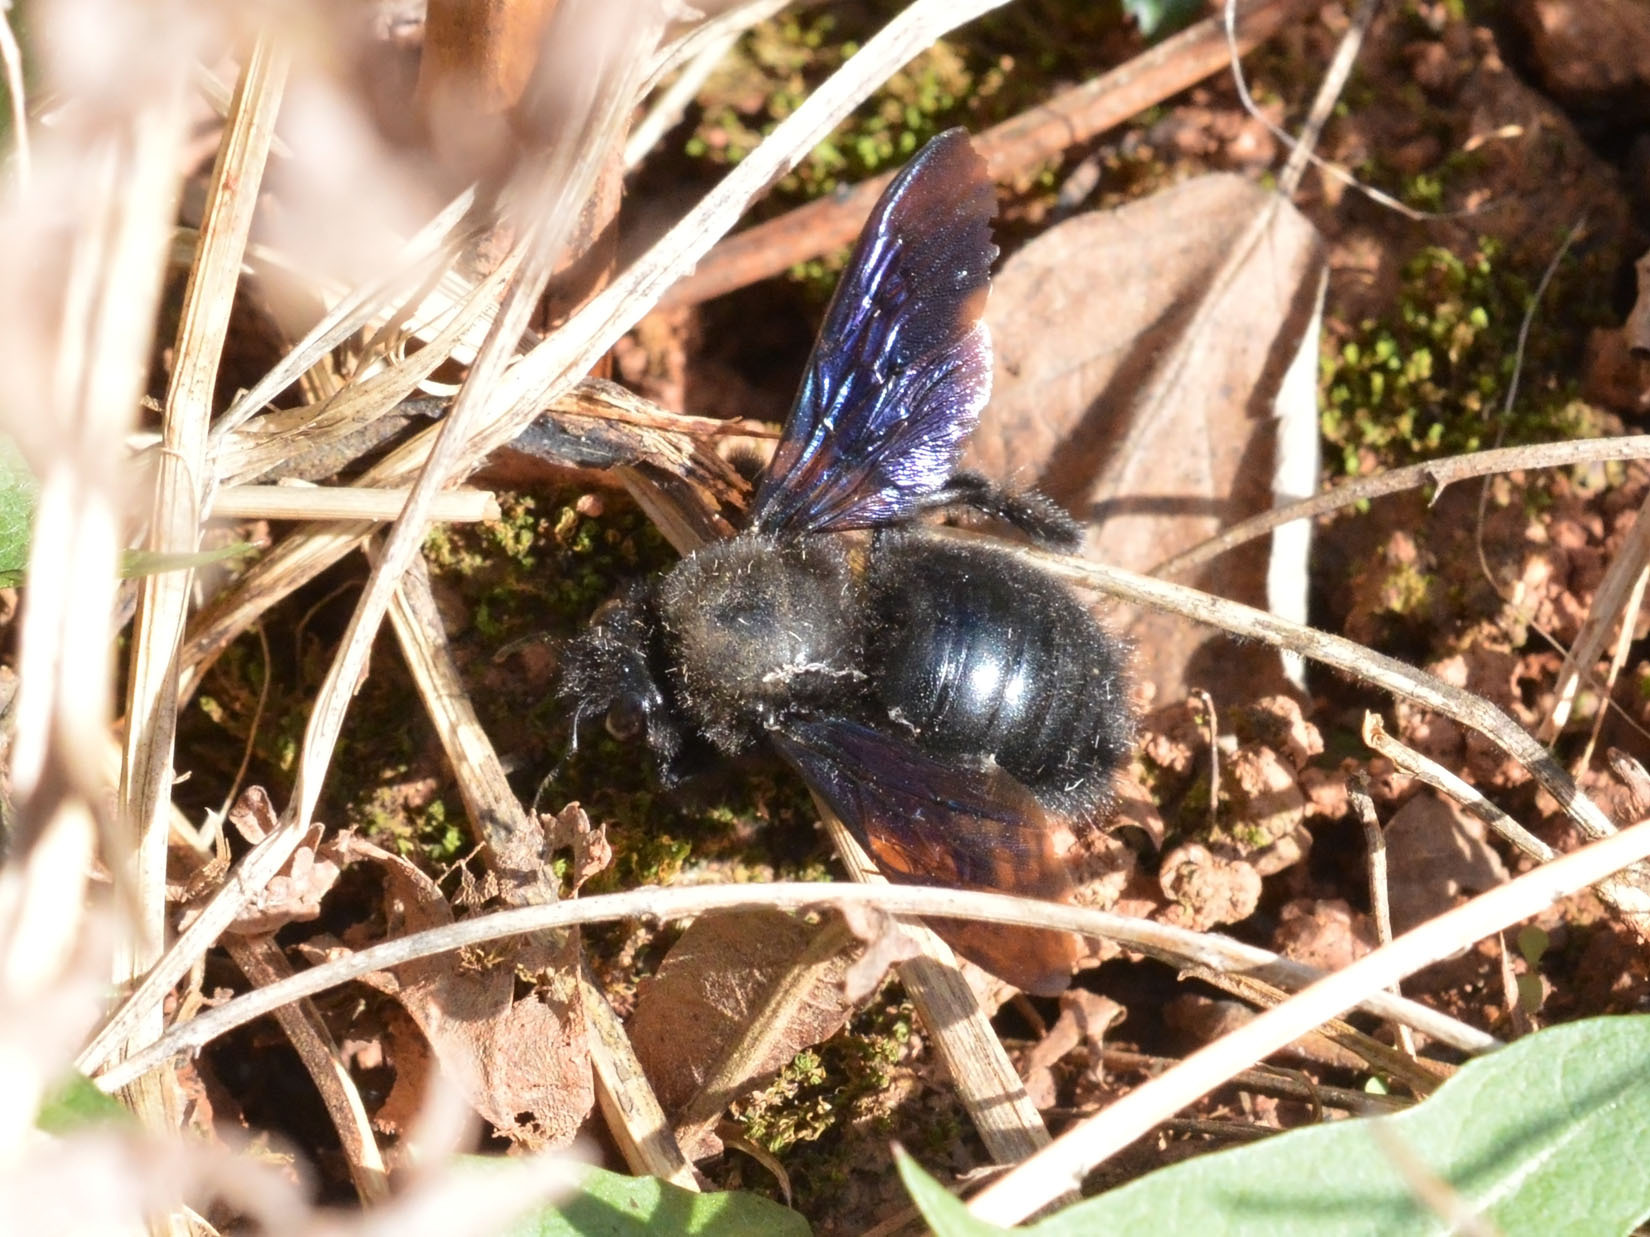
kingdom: Animalia
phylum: Arthropoda
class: Insecta
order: Hymenoptera
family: Apidae
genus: Xylocopa
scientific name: Xylocopa violacea
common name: Violet carpenter bee
